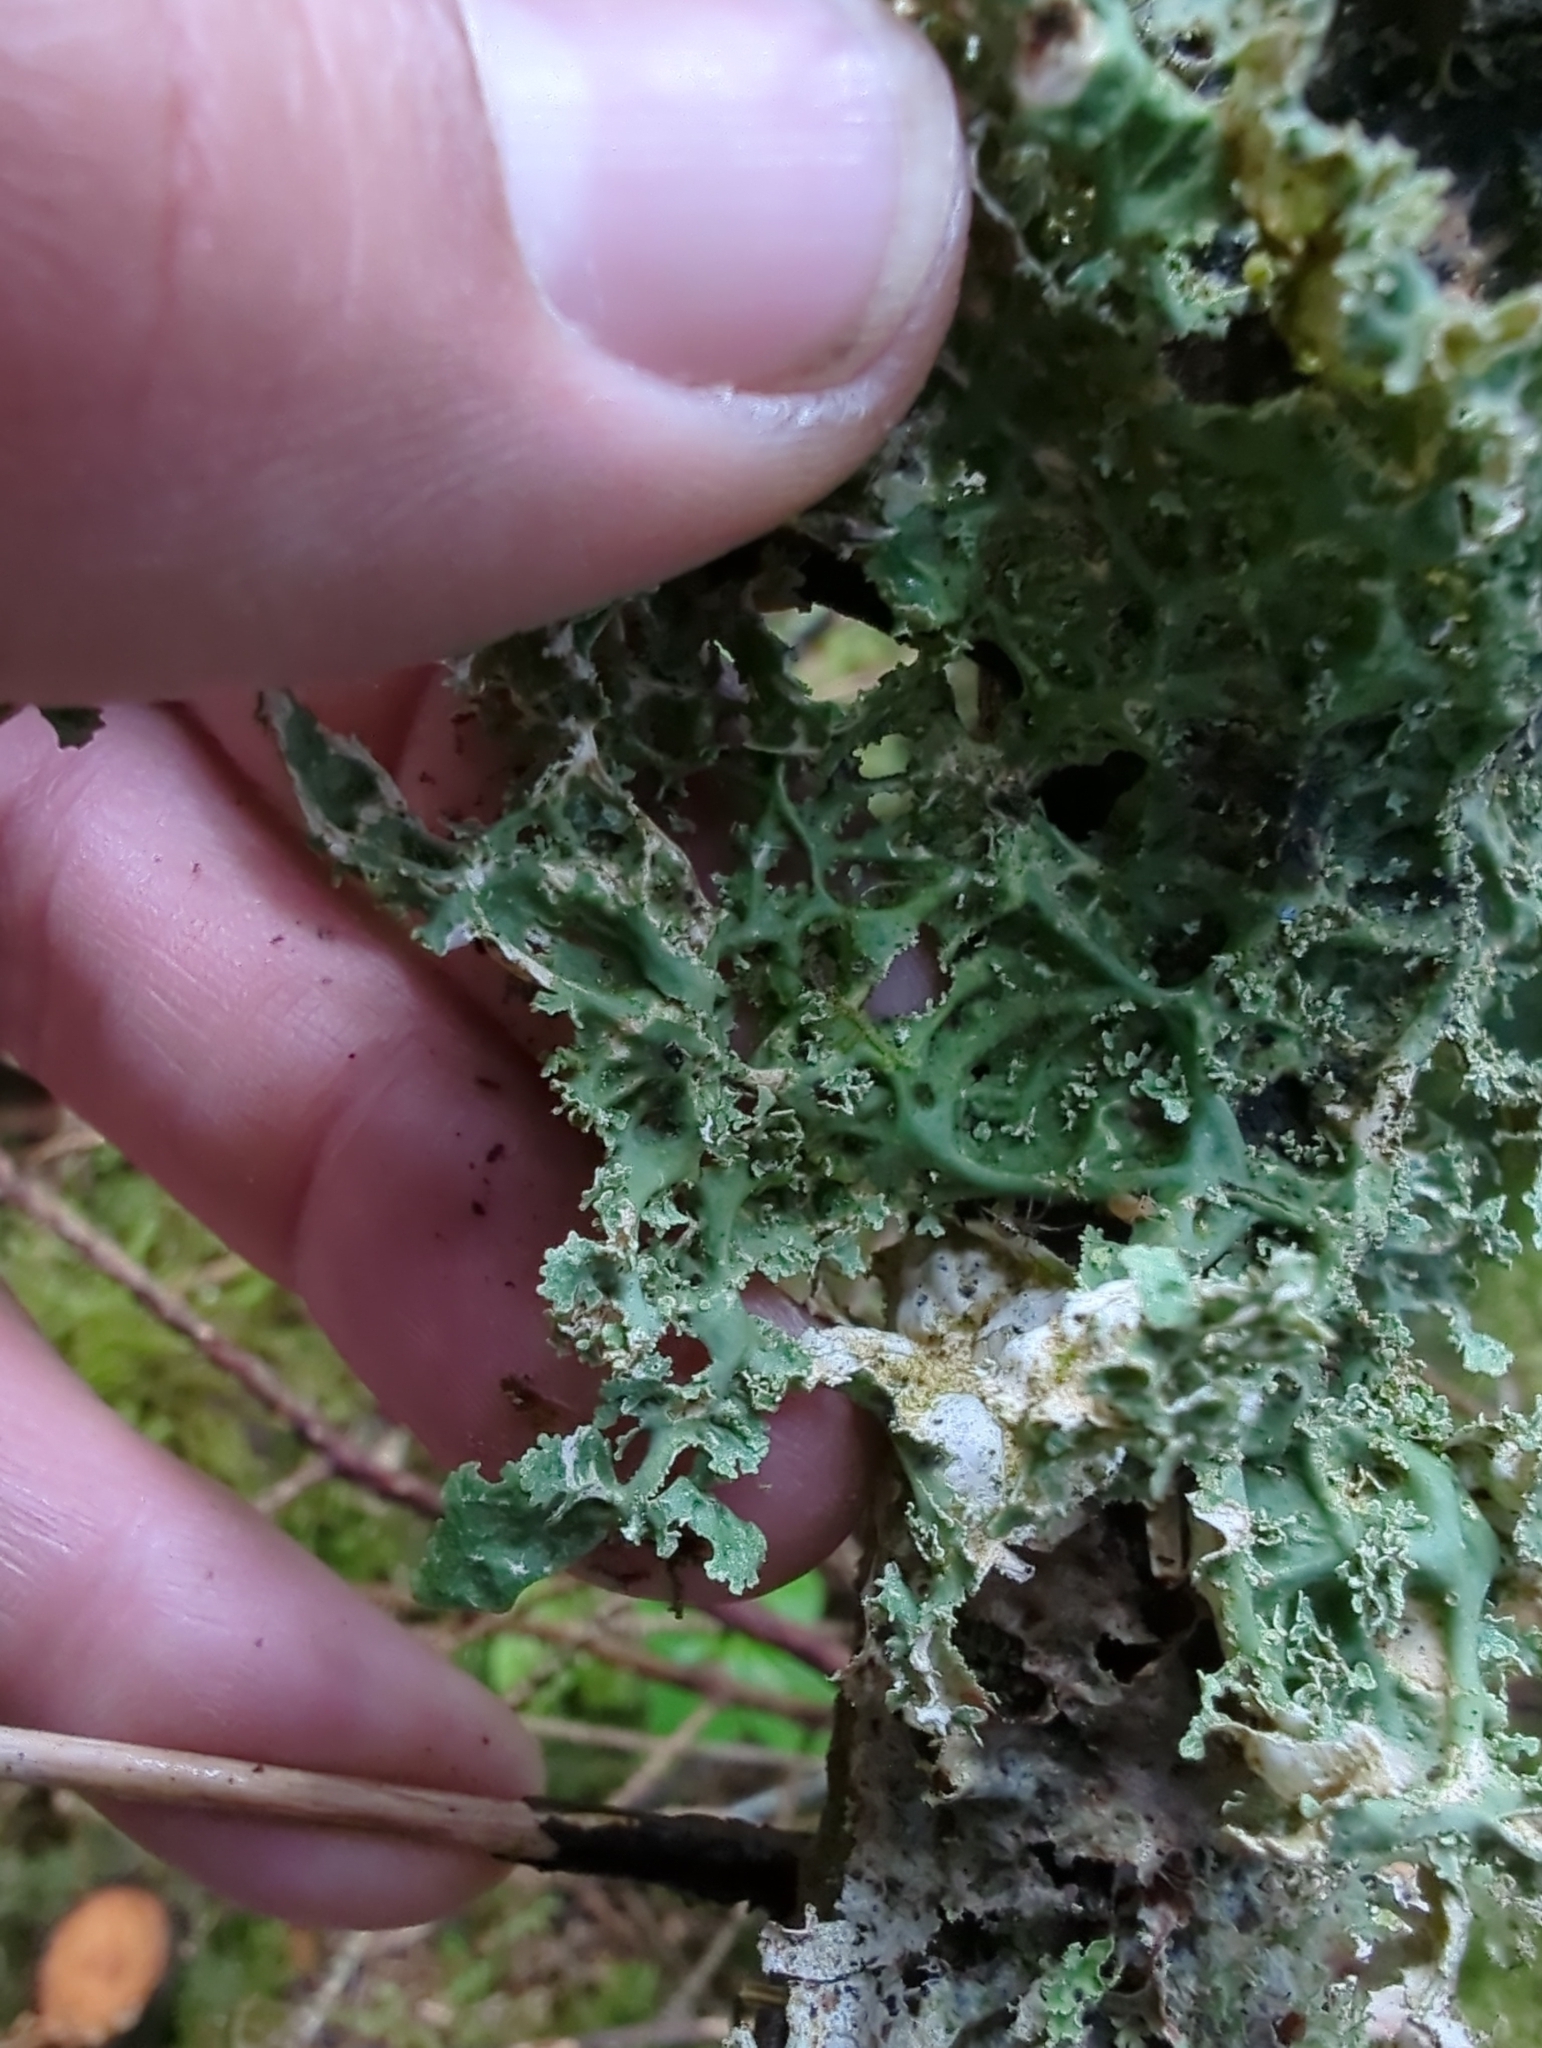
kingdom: Fungi
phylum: Ascomycota
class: Lecanoromycetes
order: Peltigerales
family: Lobariaceae
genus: Lobaria
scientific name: Lobaria oregana
